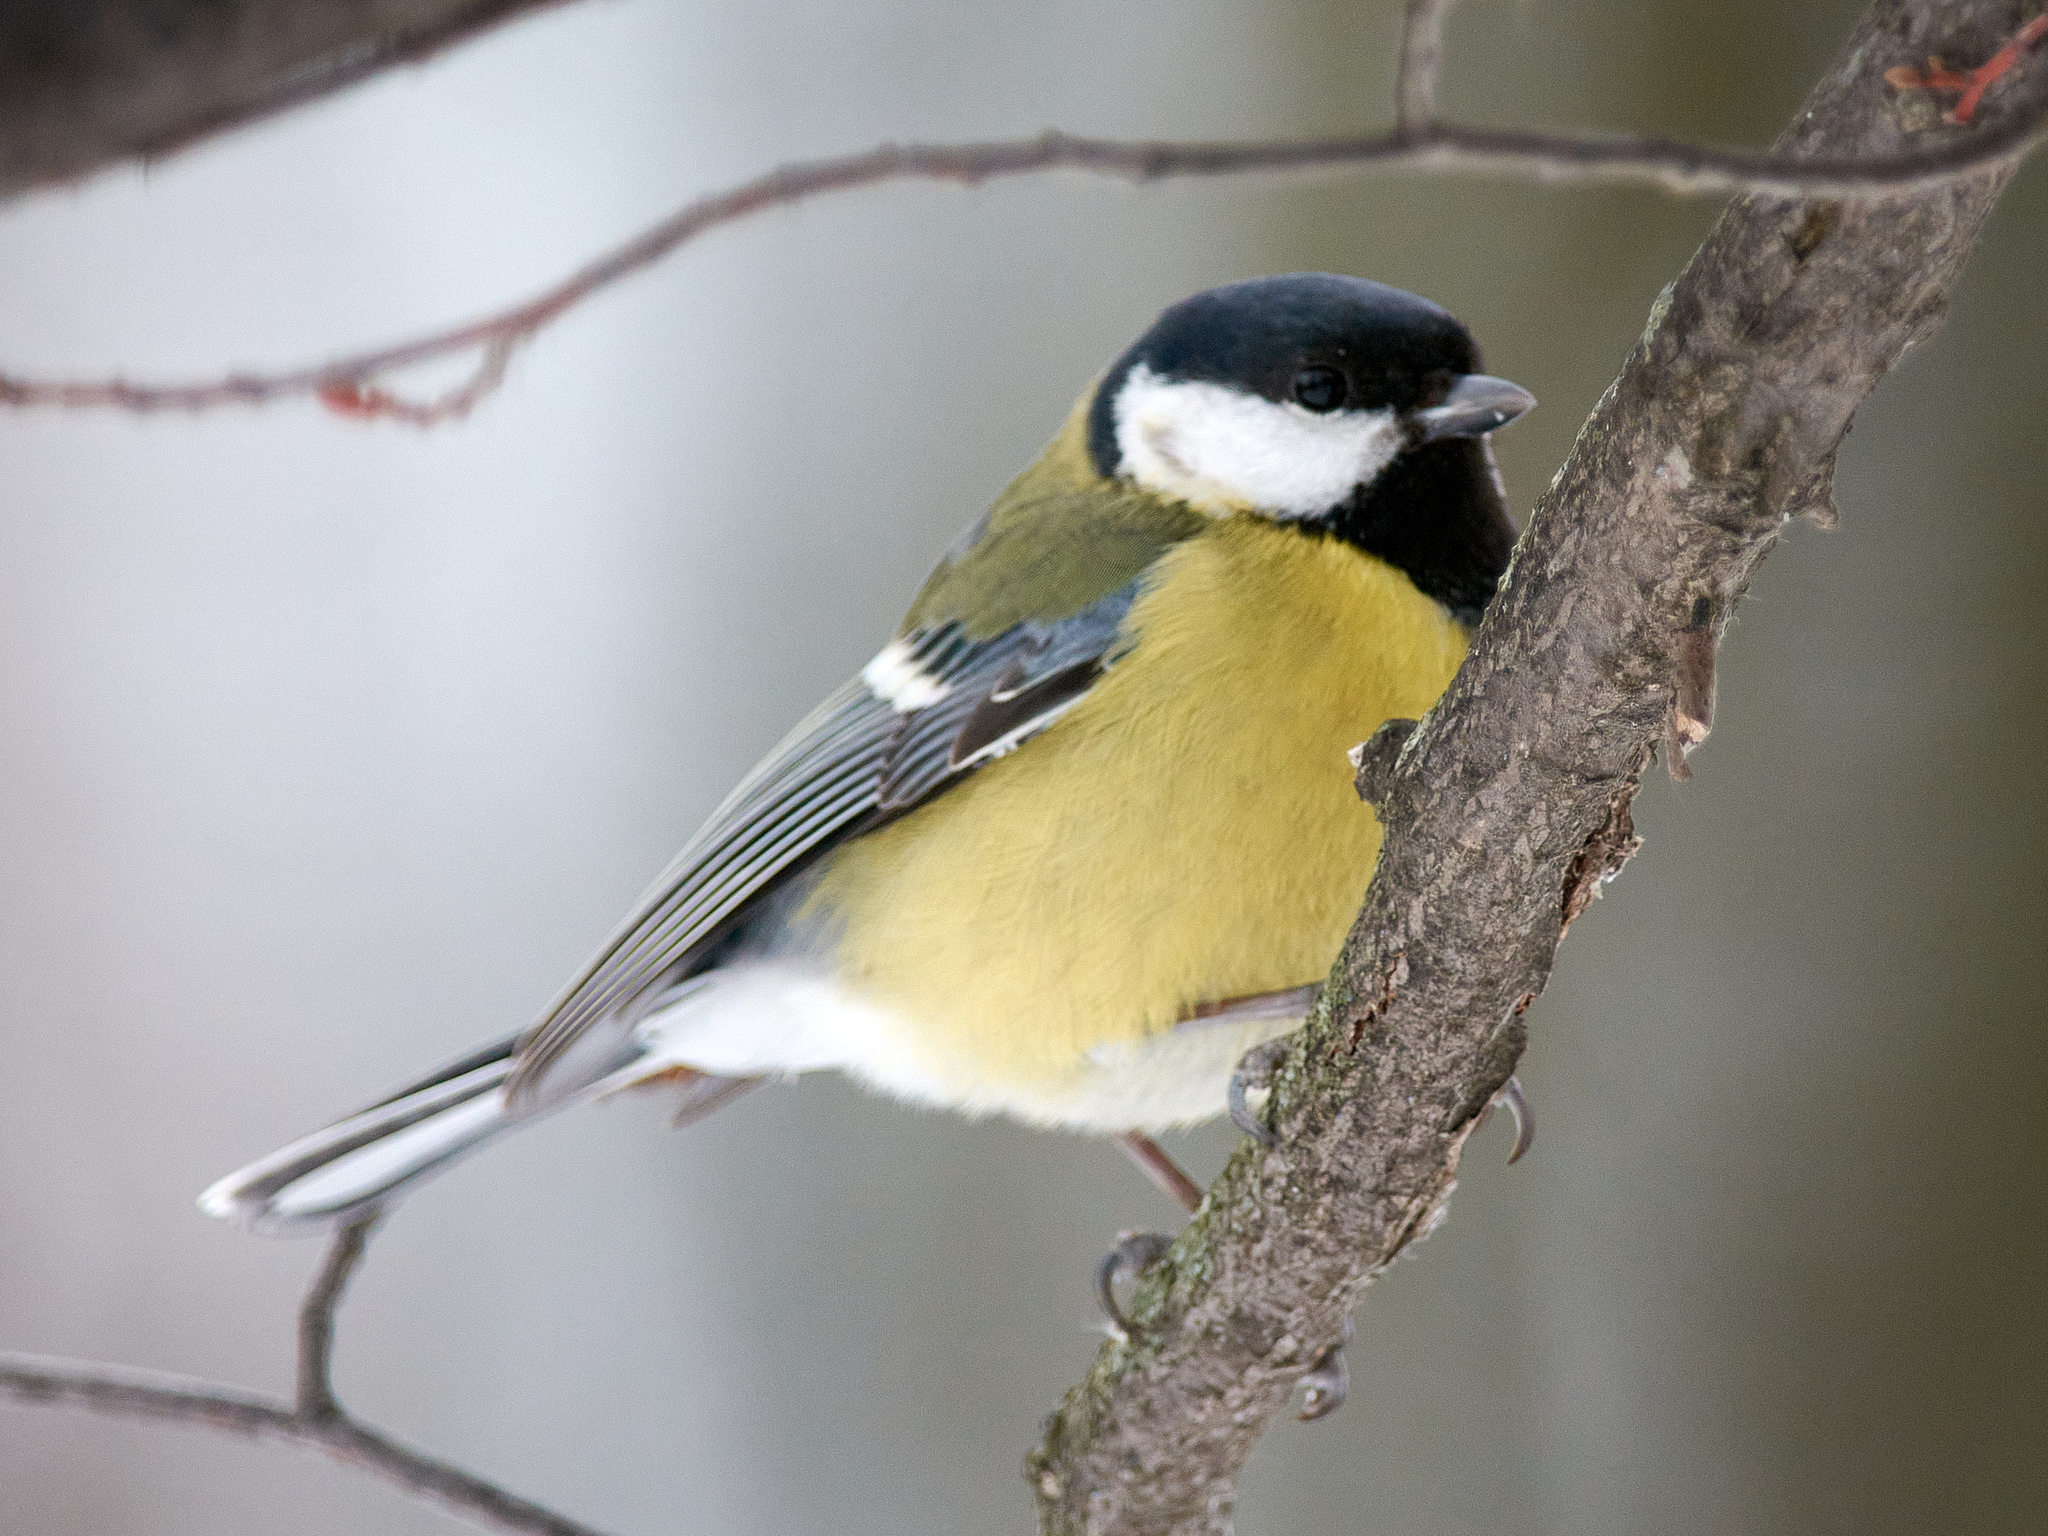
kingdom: Animalia
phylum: Chordata
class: Aves
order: Passeriformes
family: Paridae
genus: Parus
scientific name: Parus major
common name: Great tit
